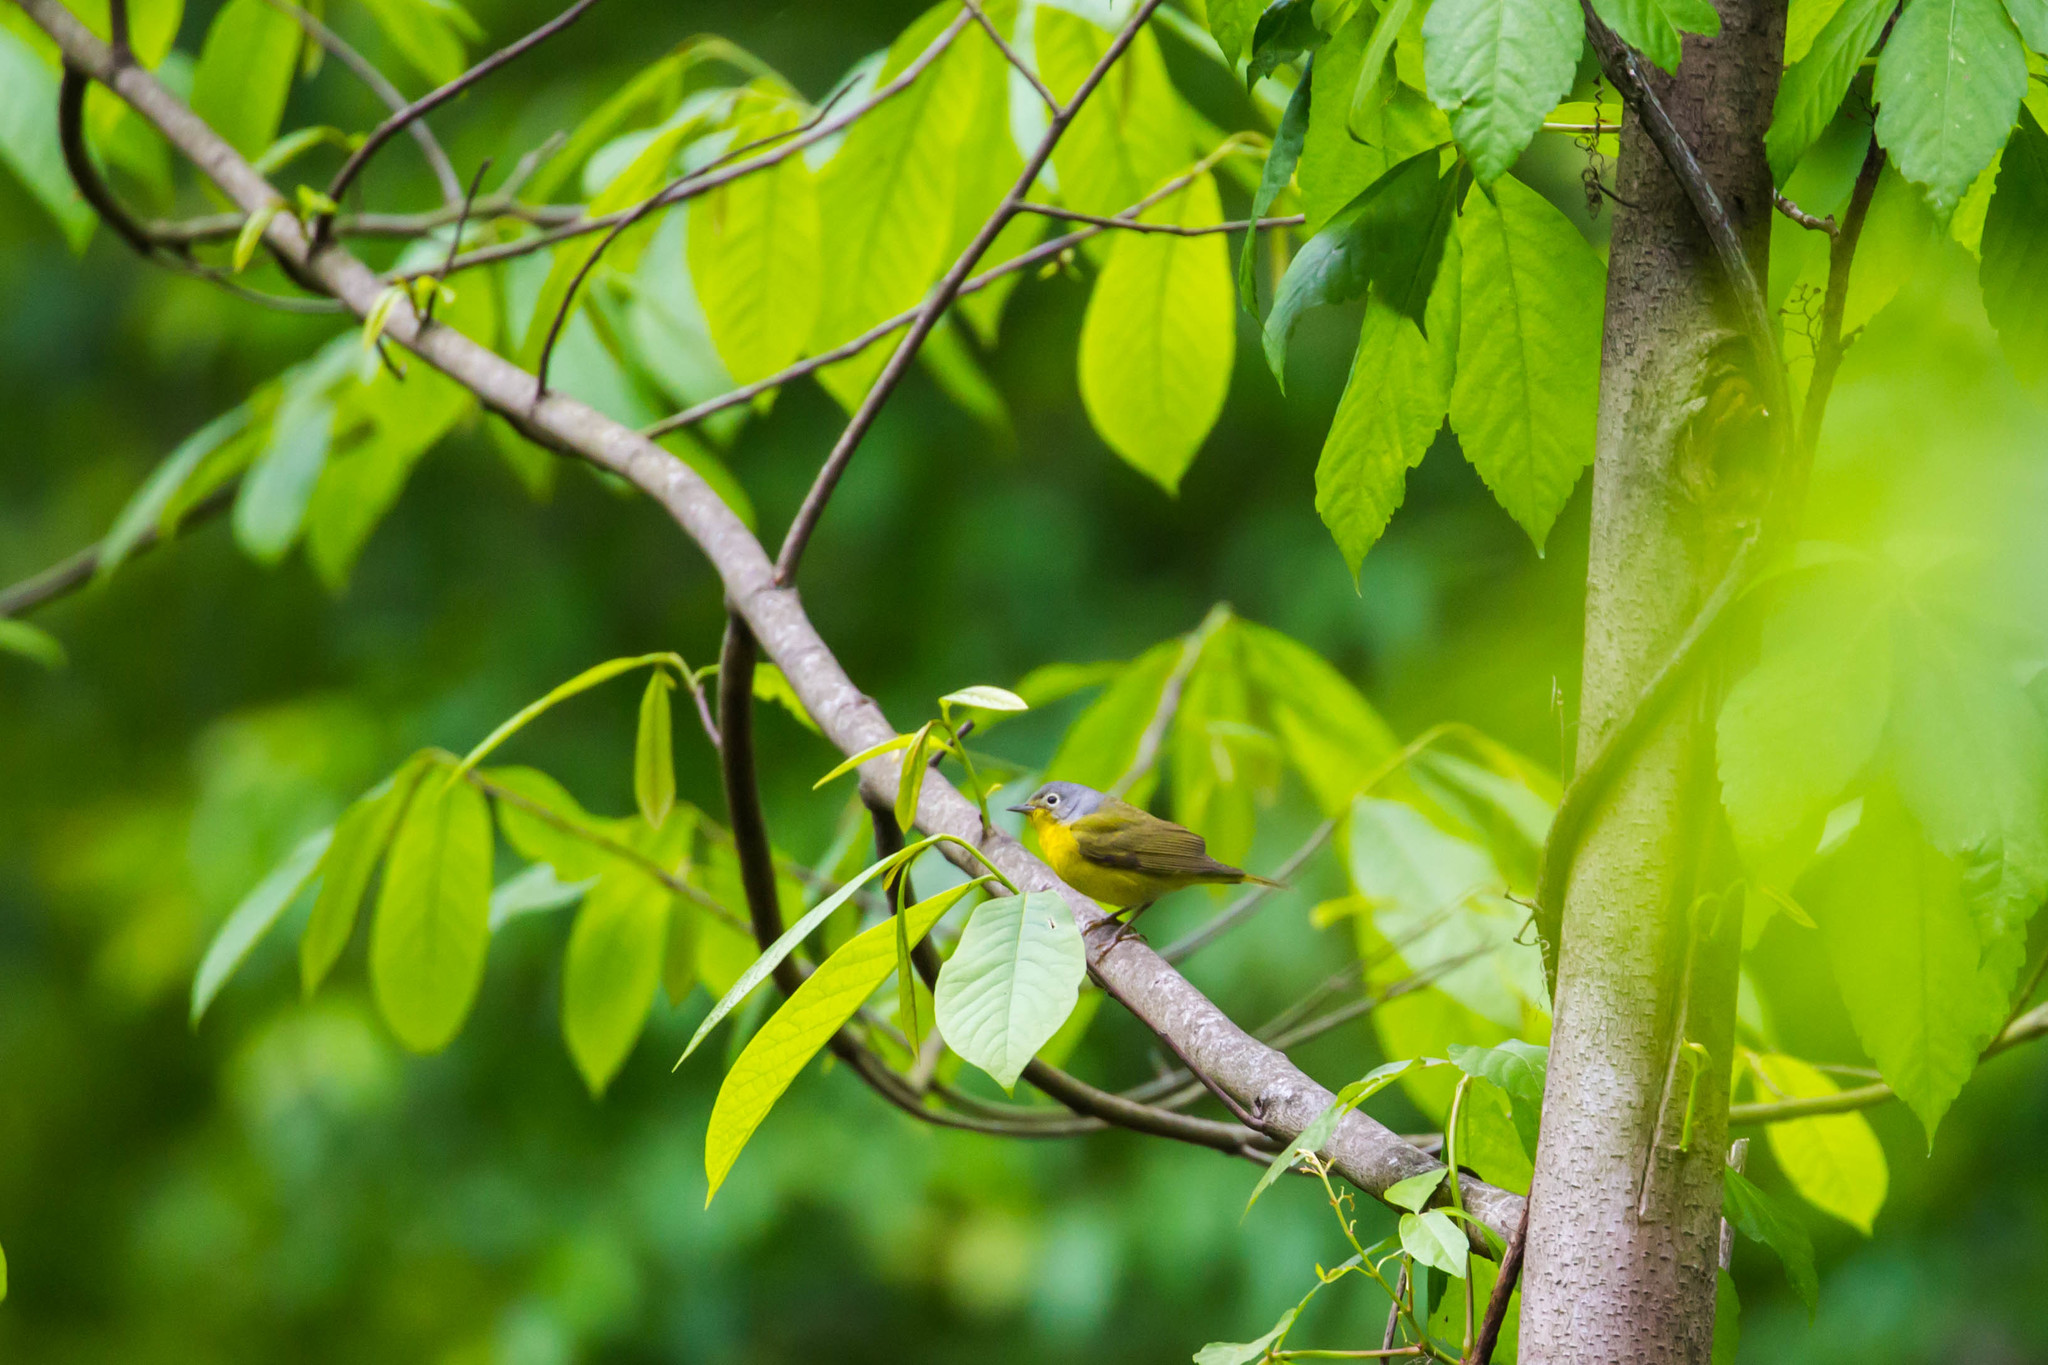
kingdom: Animalia
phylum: Chordata
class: Aves
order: Passeriformes
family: Parulidae
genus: Leiothlypis
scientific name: Leiothlypis ruficapilla
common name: Nashville warbler
